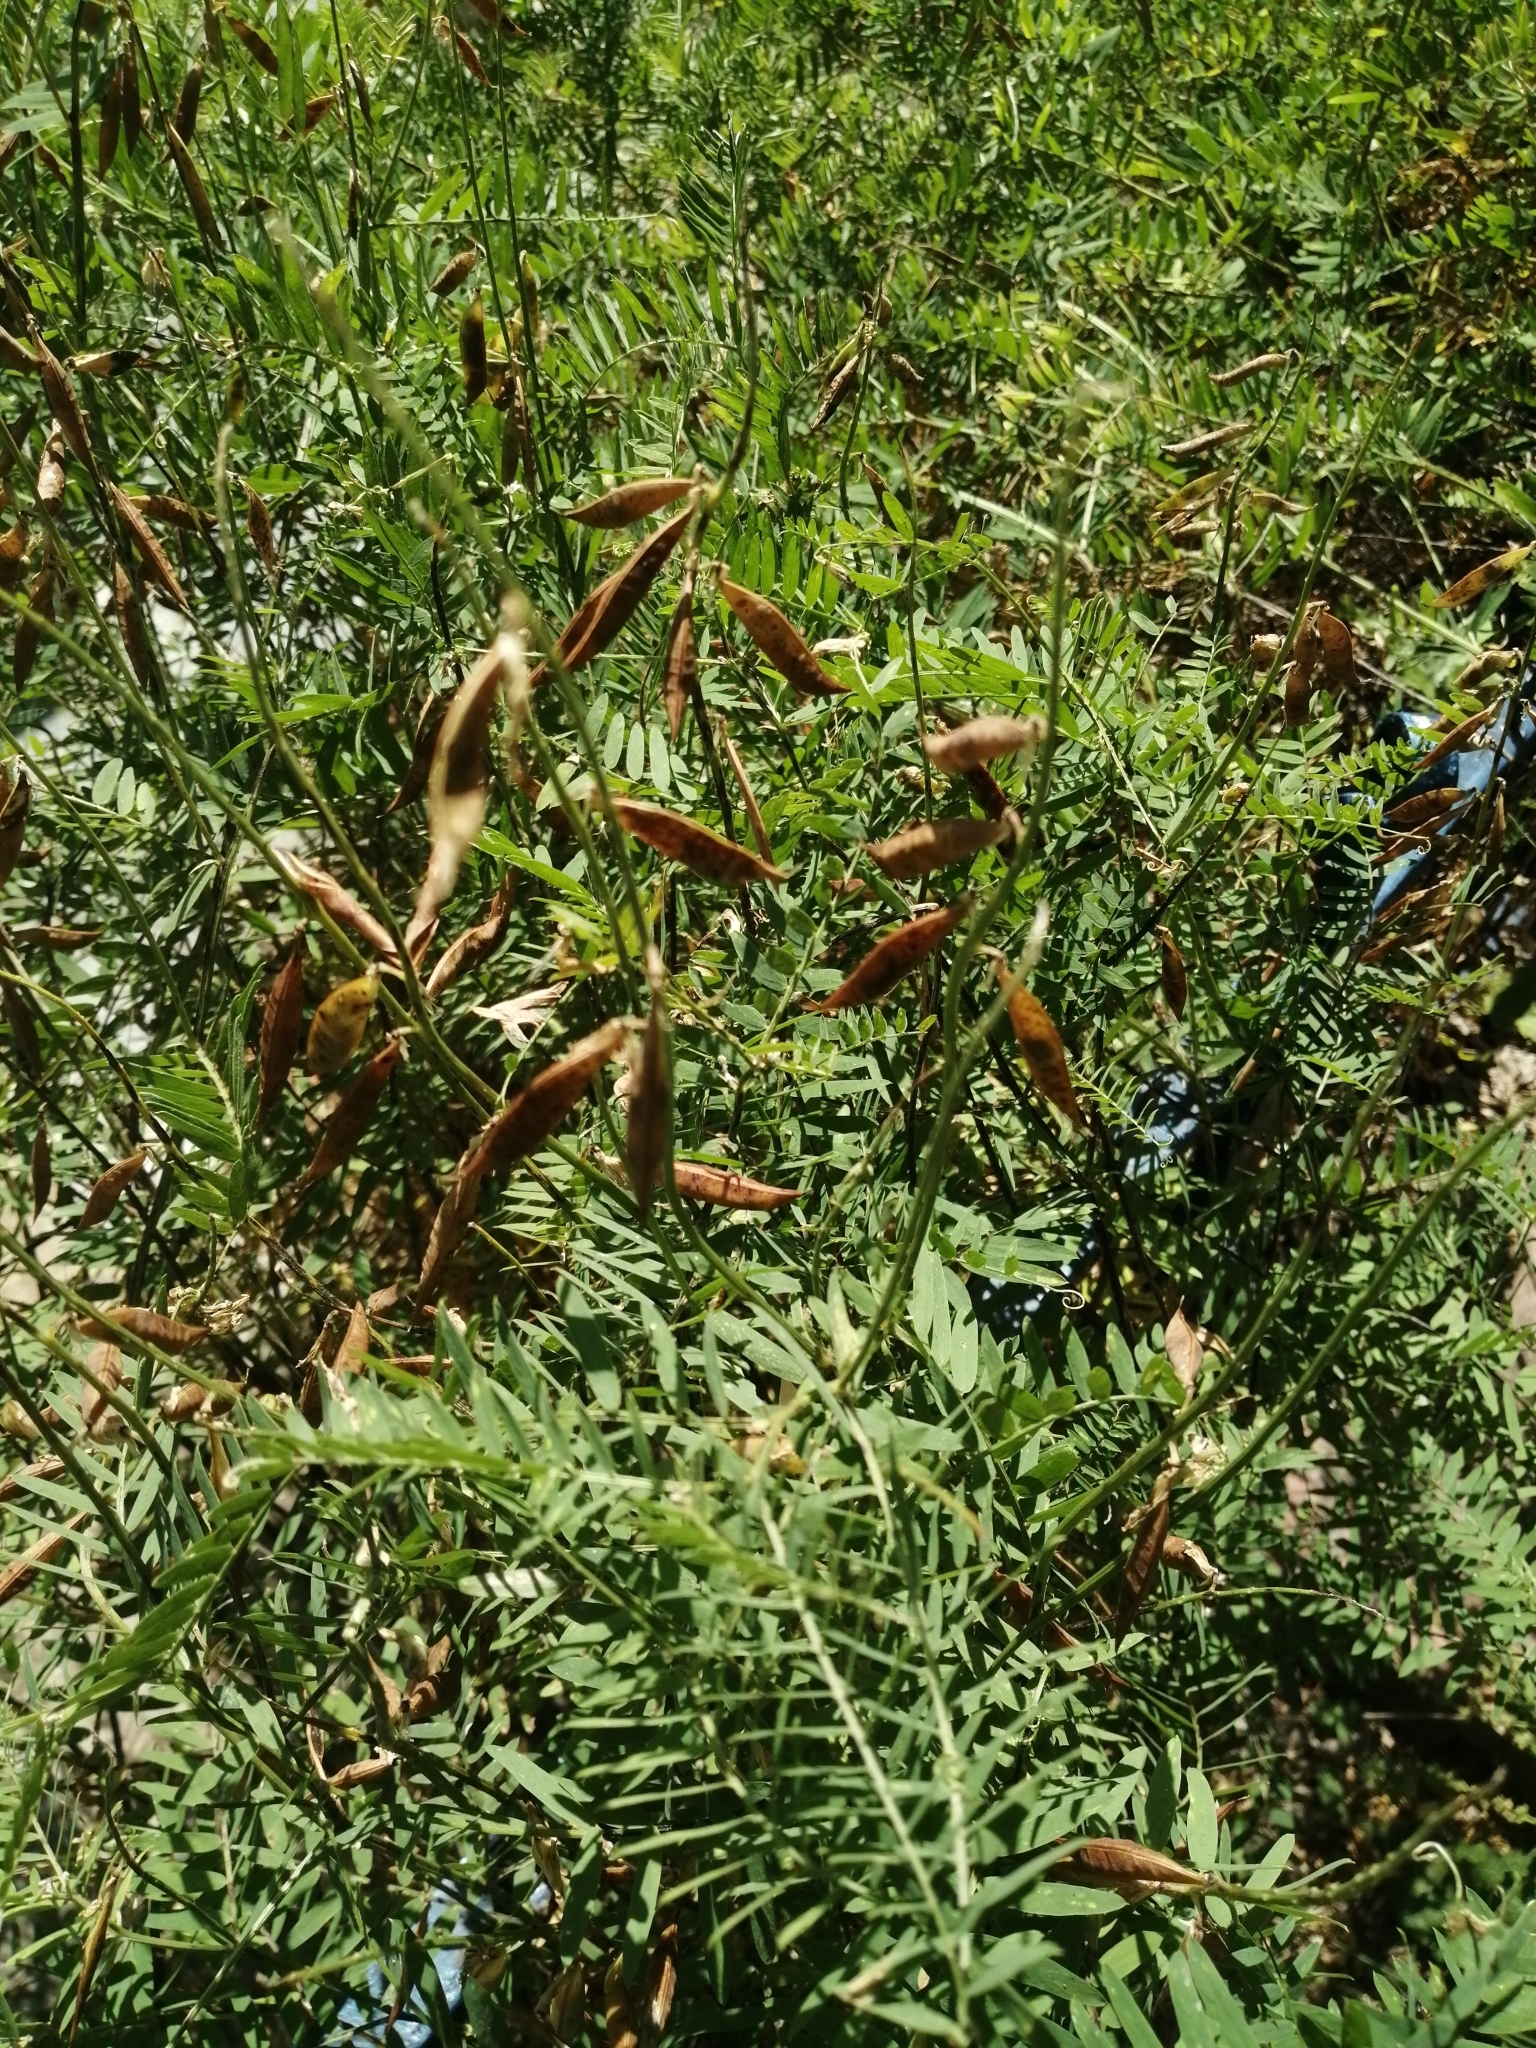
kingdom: Plantae
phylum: Tracheophyta
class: Magnoliopsida
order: Fabales
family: Fabaceae
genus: Vicia
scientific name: Vicia tenuifolia
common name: Fine-leaved vetch
